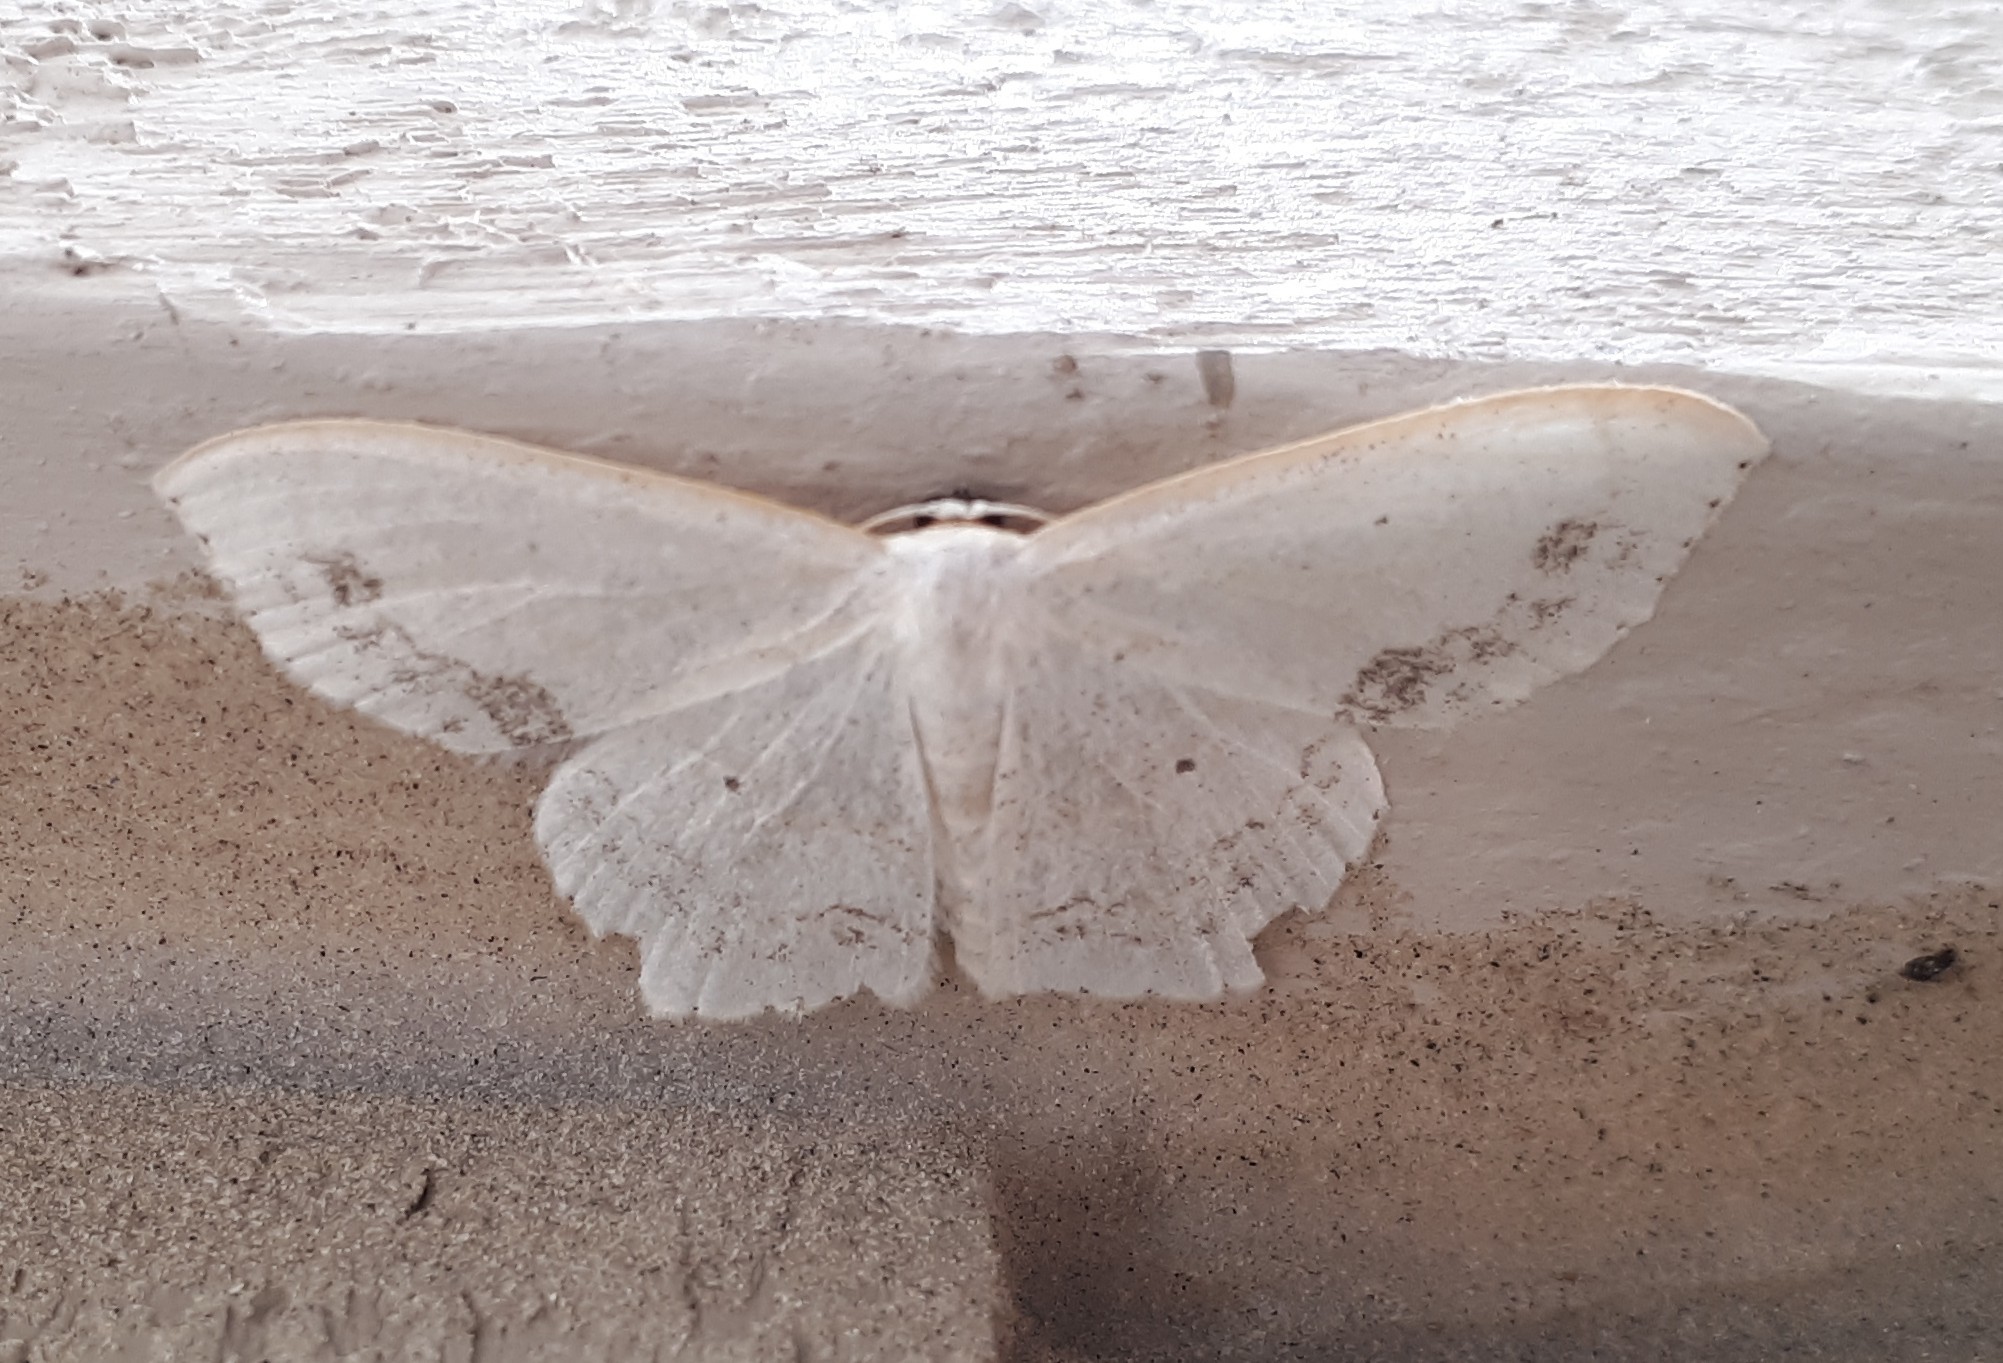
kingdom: Animalia
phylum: Arthropoda
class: Insecta
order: Lepidoptera
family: Geometridae
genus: Scopula
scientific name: Scopula limboundata
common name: Large lace border
